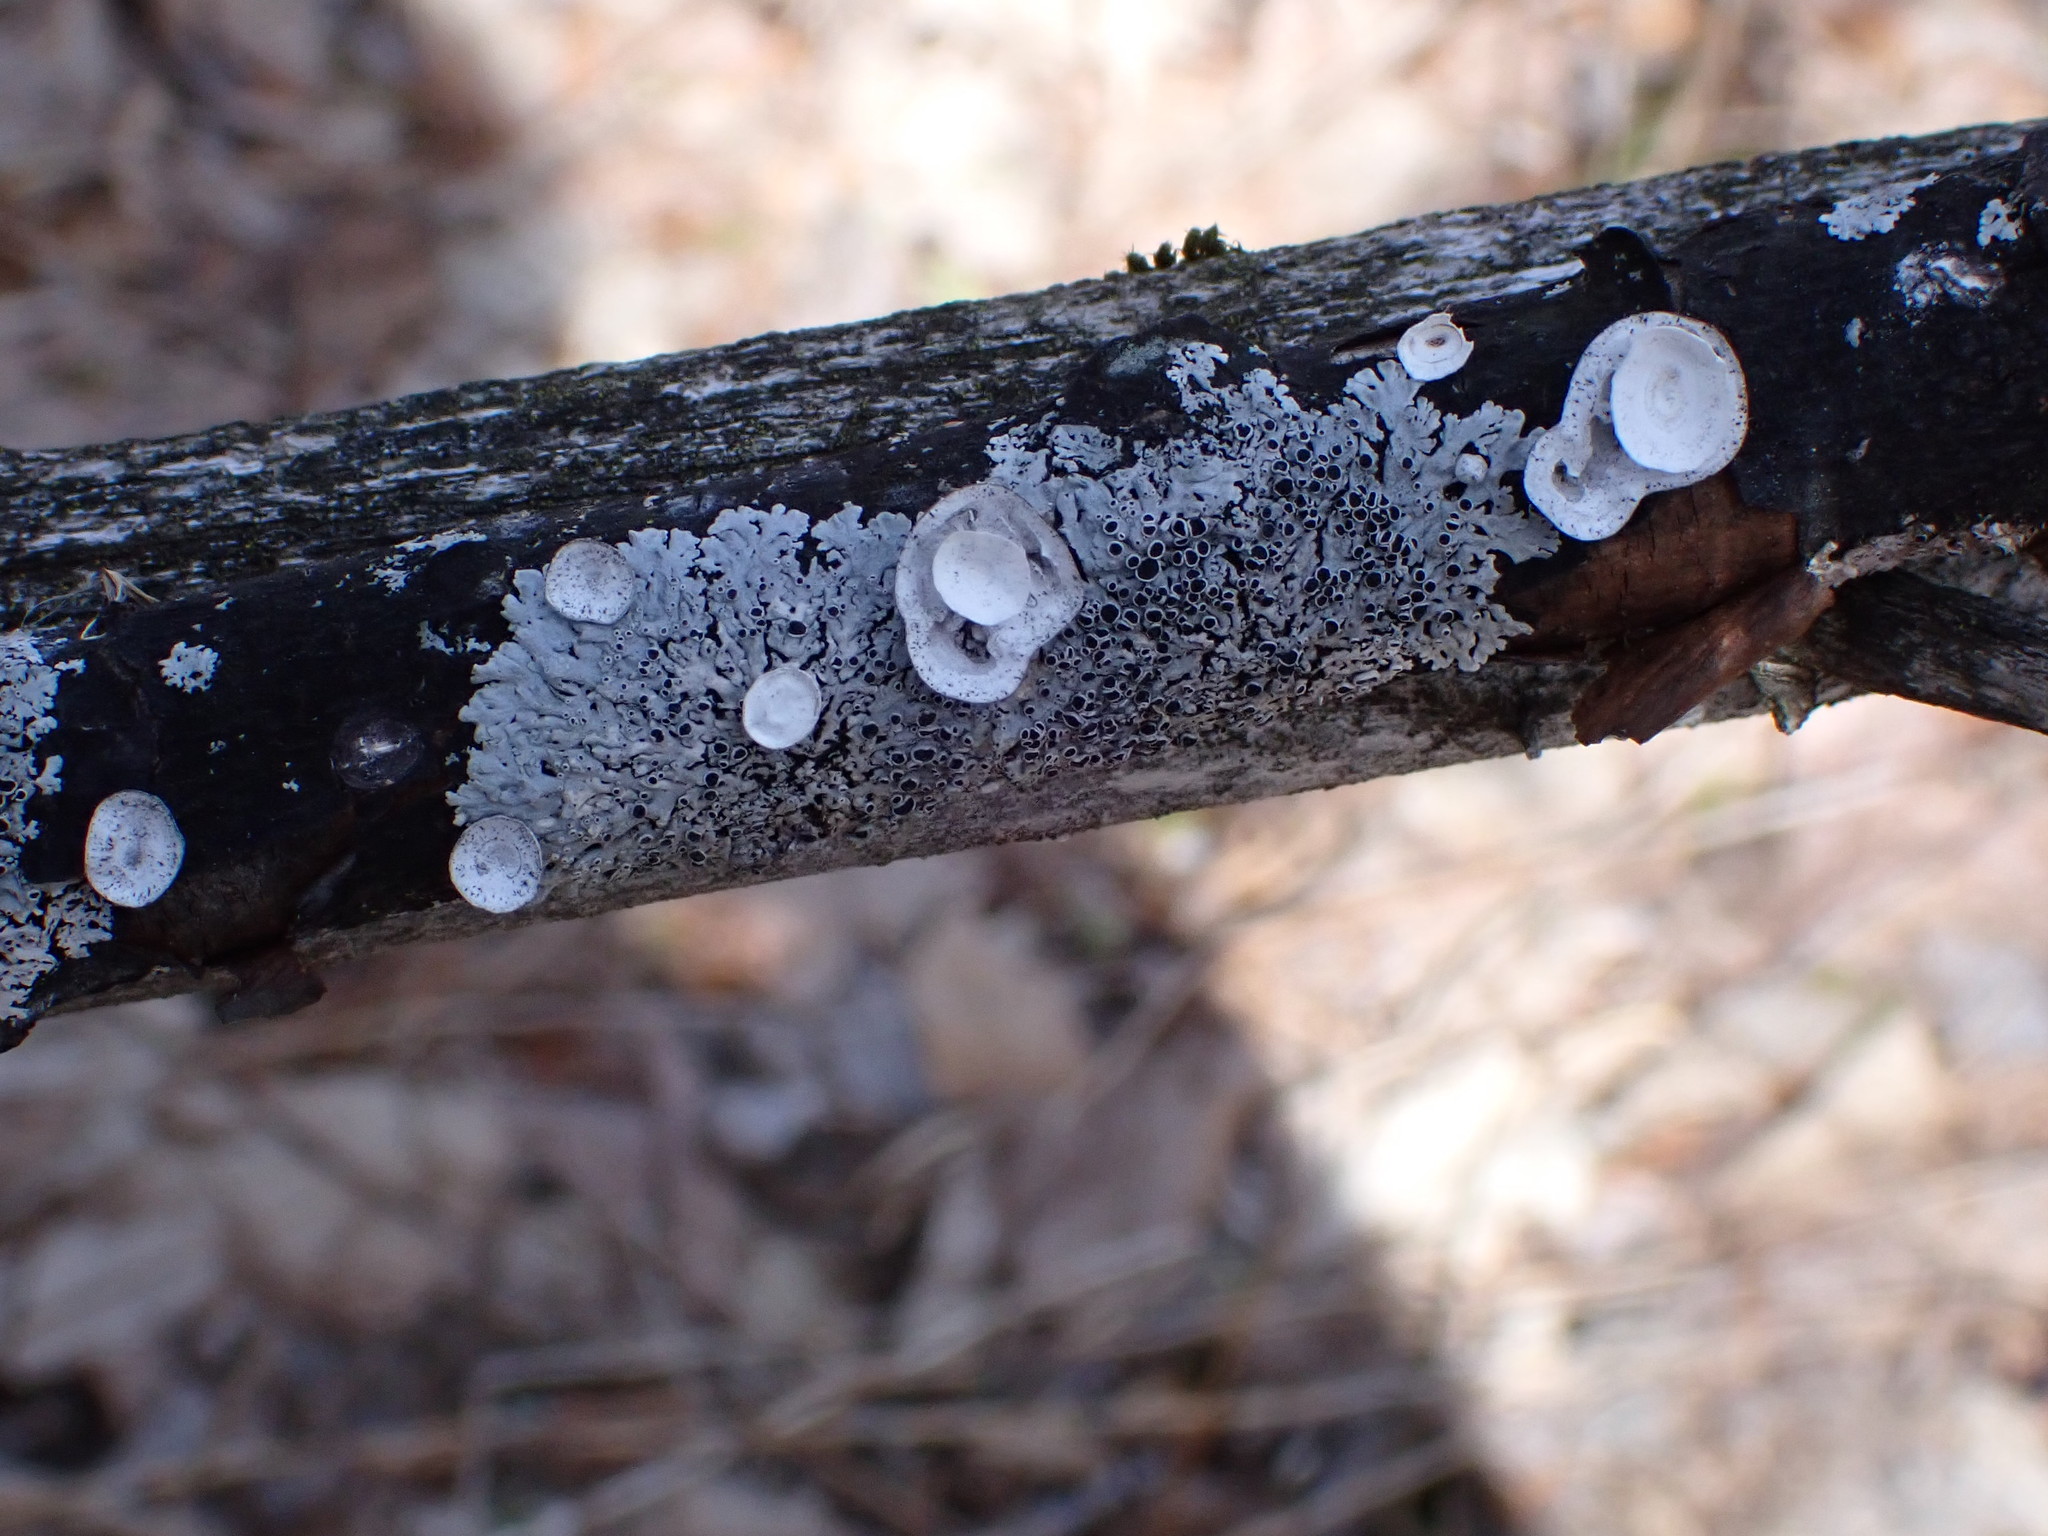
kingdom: Fungi
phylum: Basidiomycota
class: Agaricomycetes
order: Polyporales
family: Polyporaceae
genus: Poronidulus
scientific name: Poronidulus conchifer
